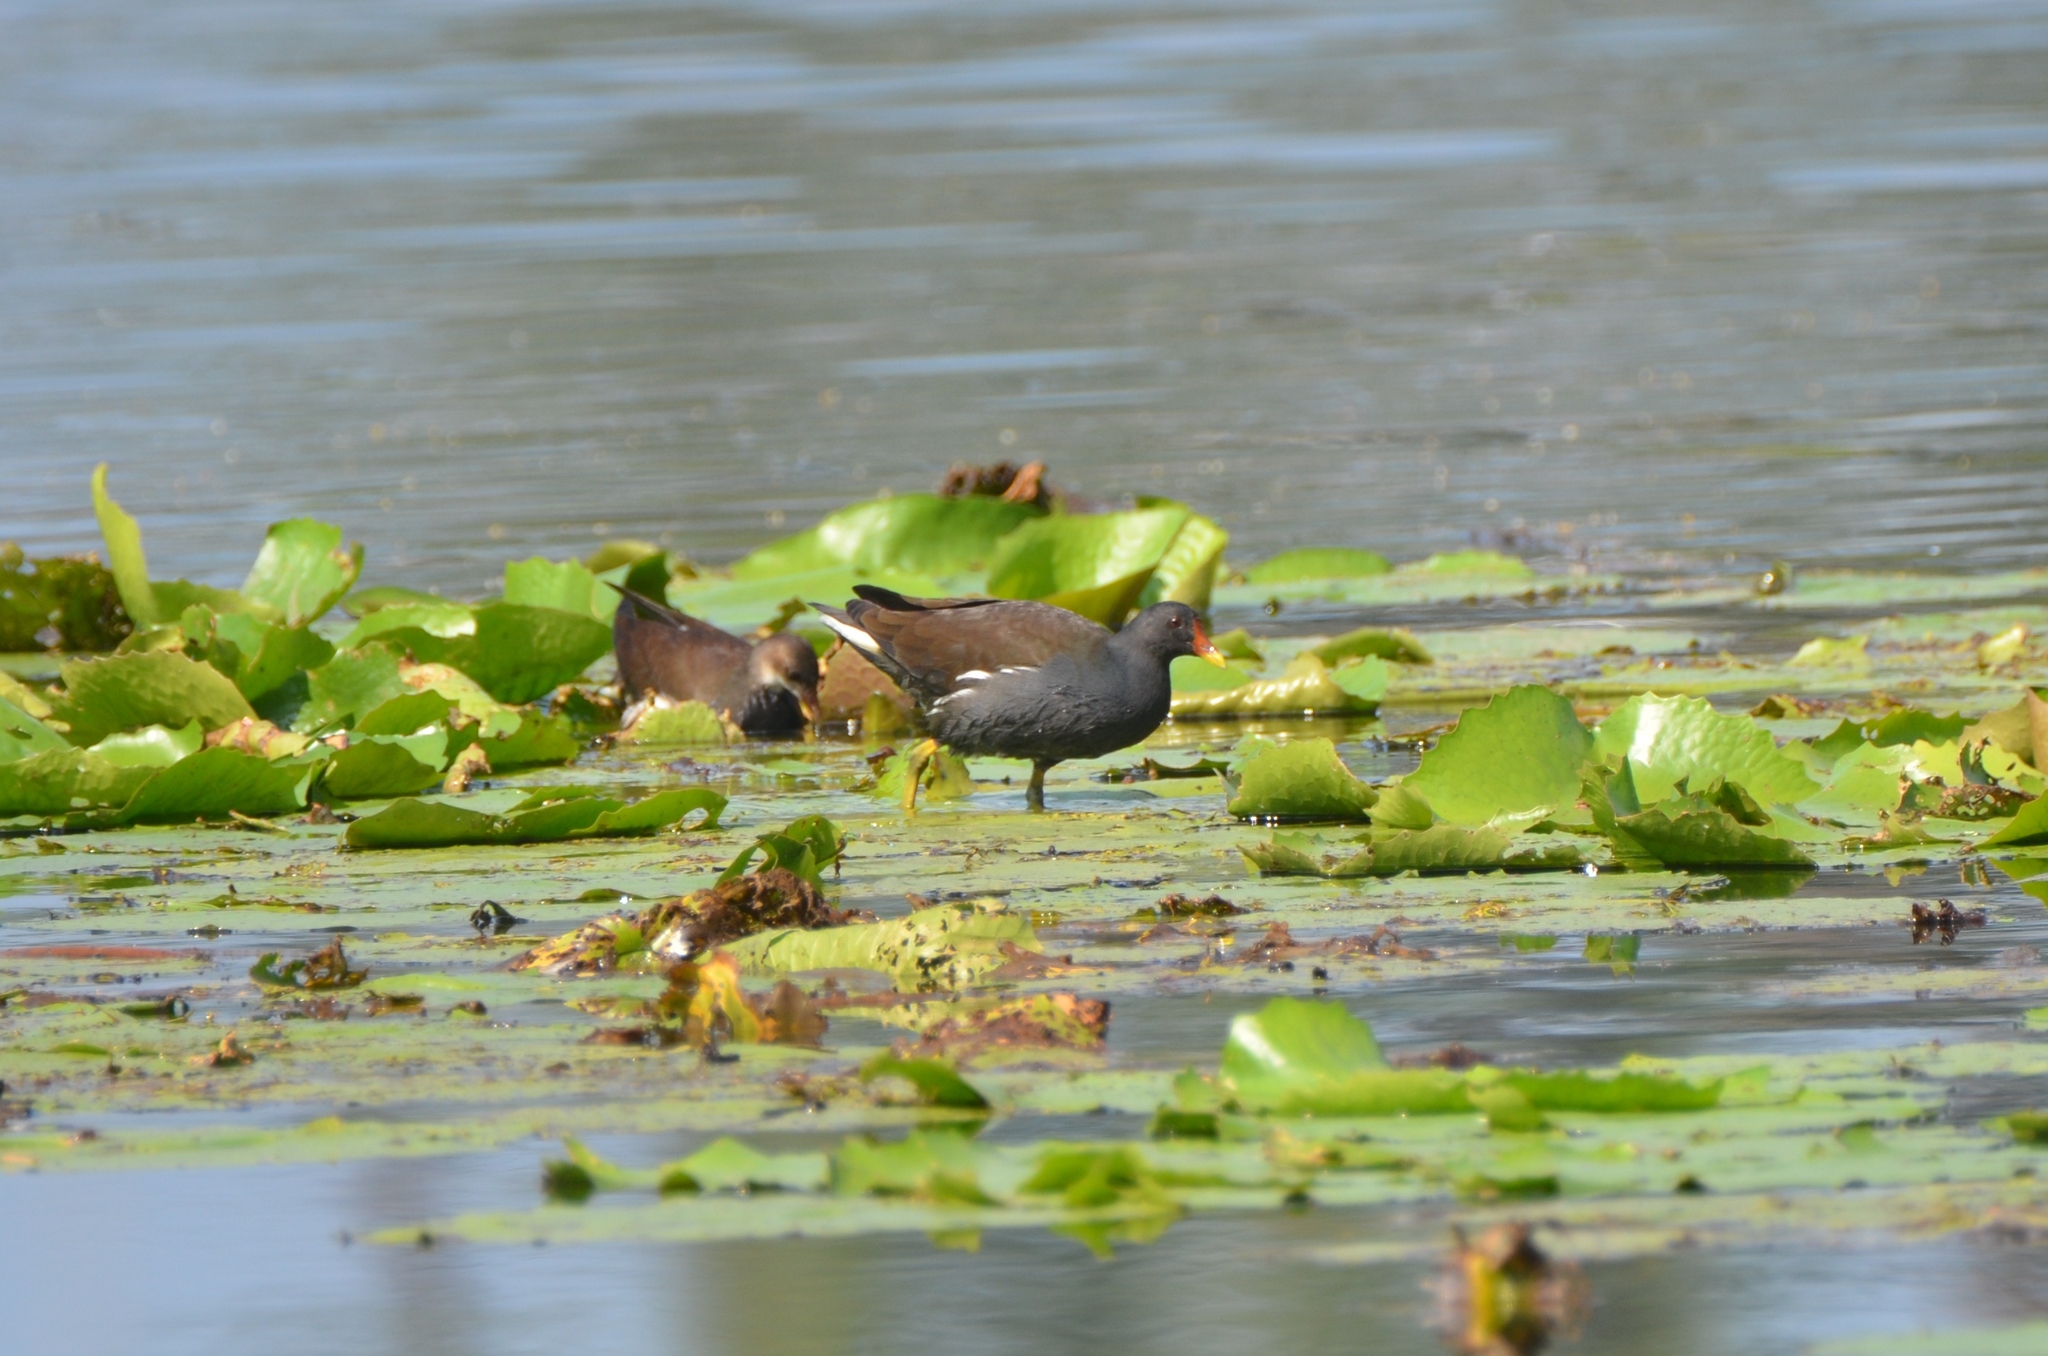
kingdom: Animalia
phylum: Chordata
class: Aves
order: Gruiformes
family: Rallidae
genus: Gallinula
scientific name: Gallinula chloropus
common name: Common moorhen
